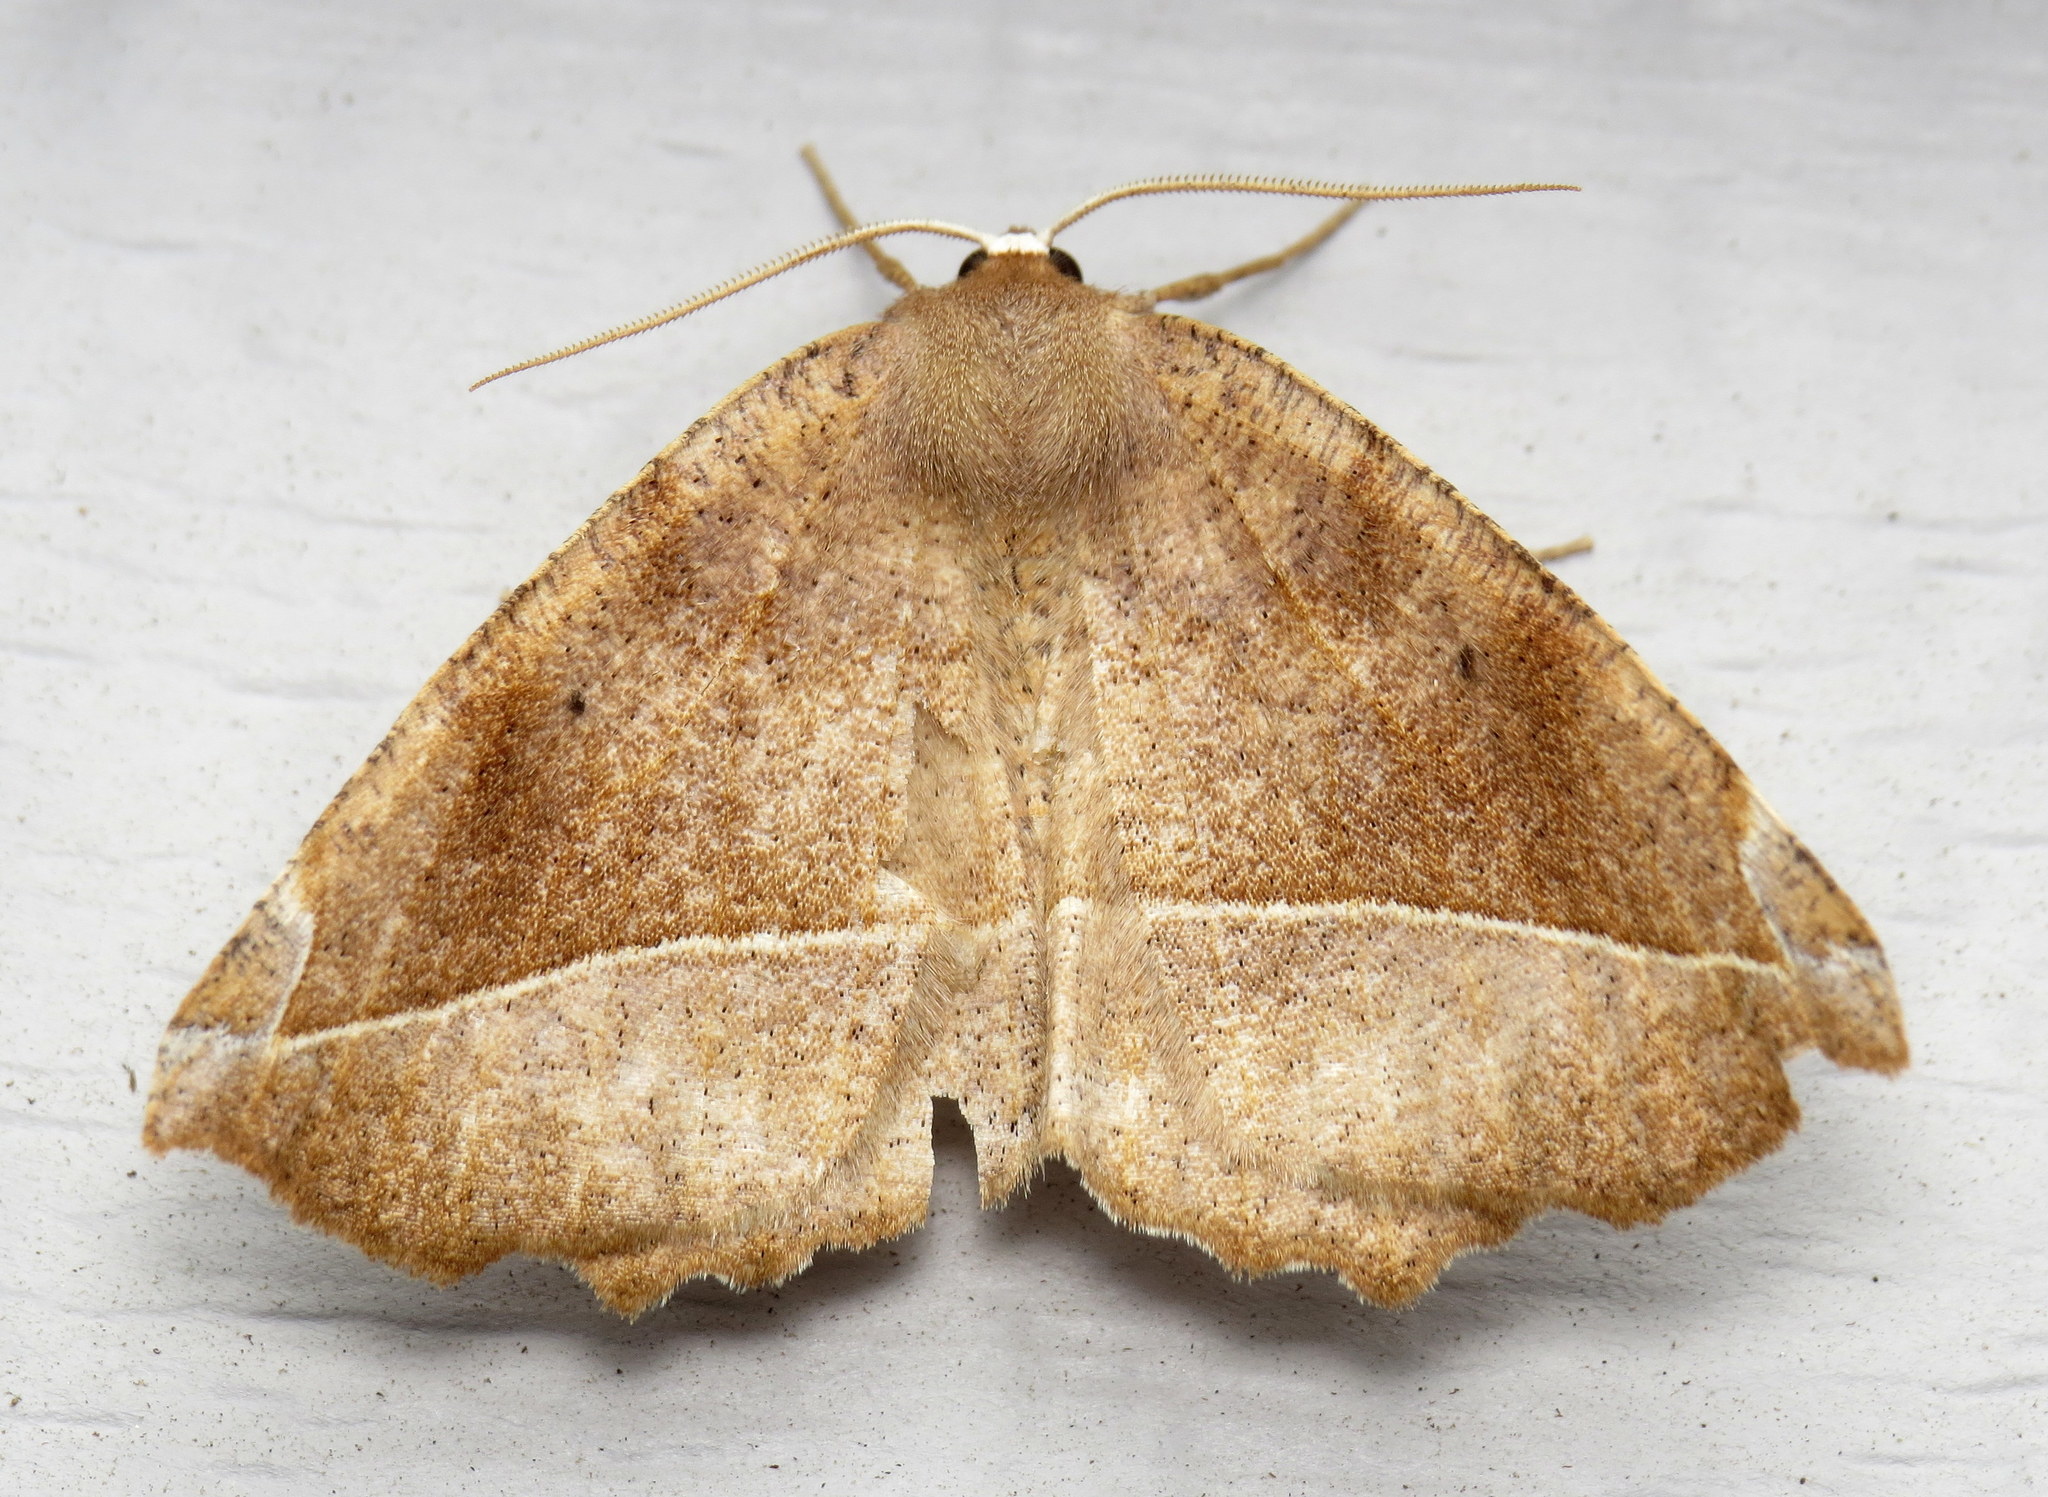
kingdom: Animalia
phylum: Arthropoda
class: Insecta
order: Lepidoptera
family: Geometridae
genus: Eutrapela
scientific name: Eutrapela clemataria
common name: Curved-toothed geometer
